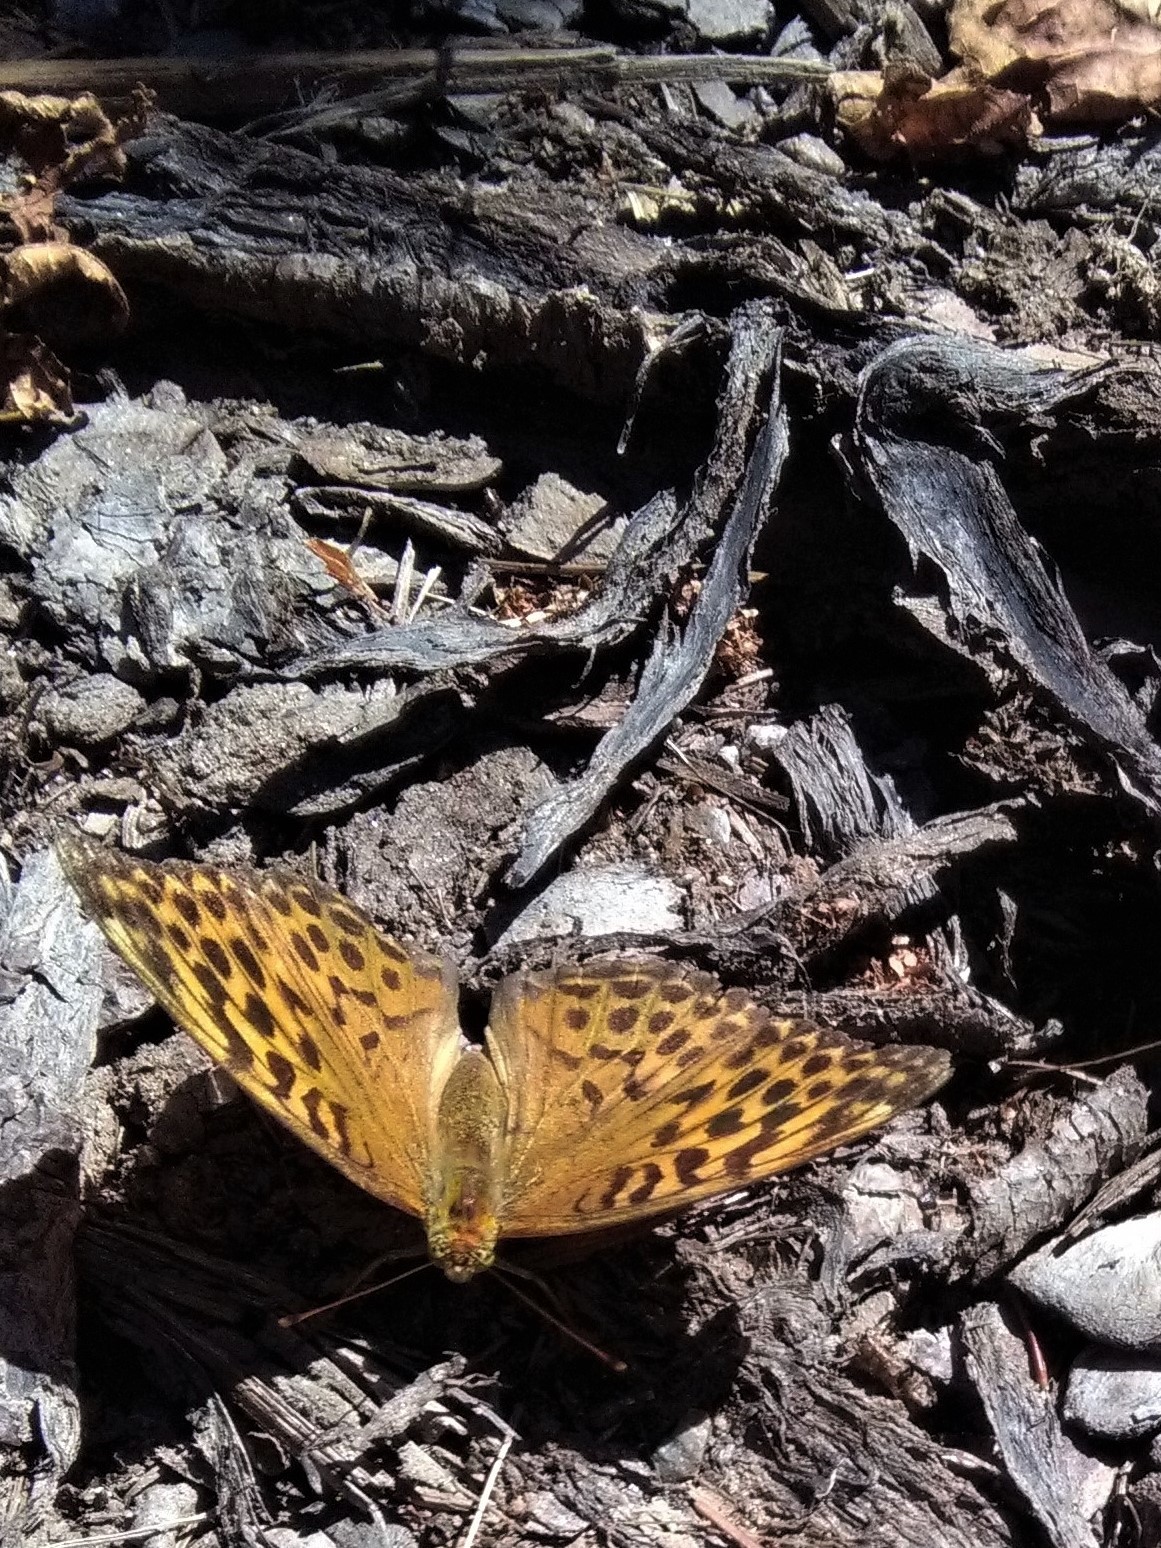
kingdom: Animalia
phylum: Arthropoda
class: Insecta
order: Lepidoptera
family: Nymphalidae
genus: Argynnis
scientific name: Argynnis paphia
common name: Silver-washed fritillary
